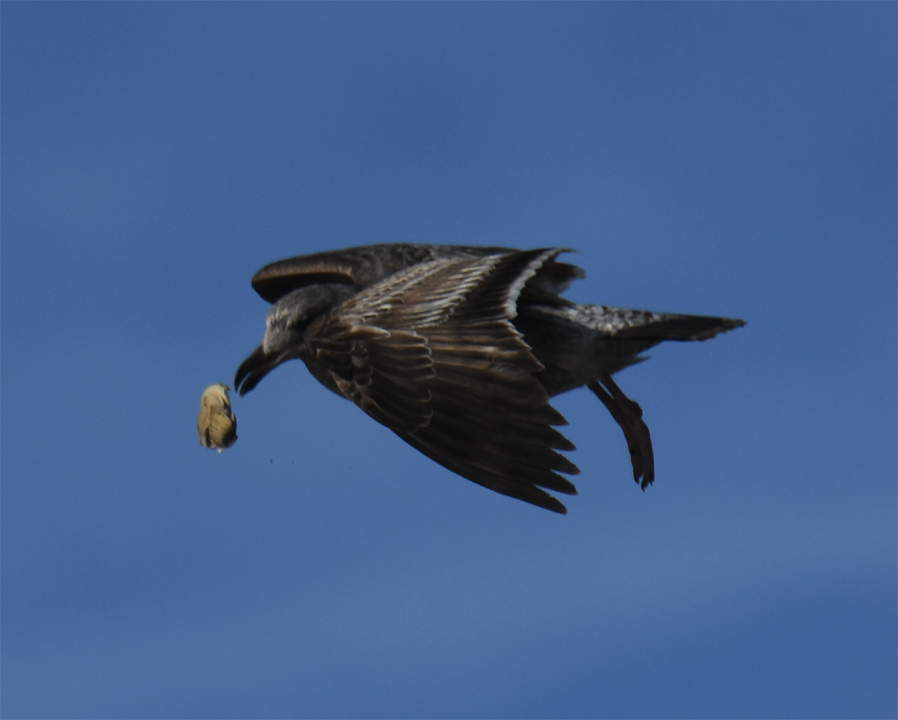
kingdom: Animalia
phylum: Chordata
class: Aves
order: Charadriiformes
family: Laridae
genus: Larus
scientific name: Larus occidentalis
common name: Western gull
